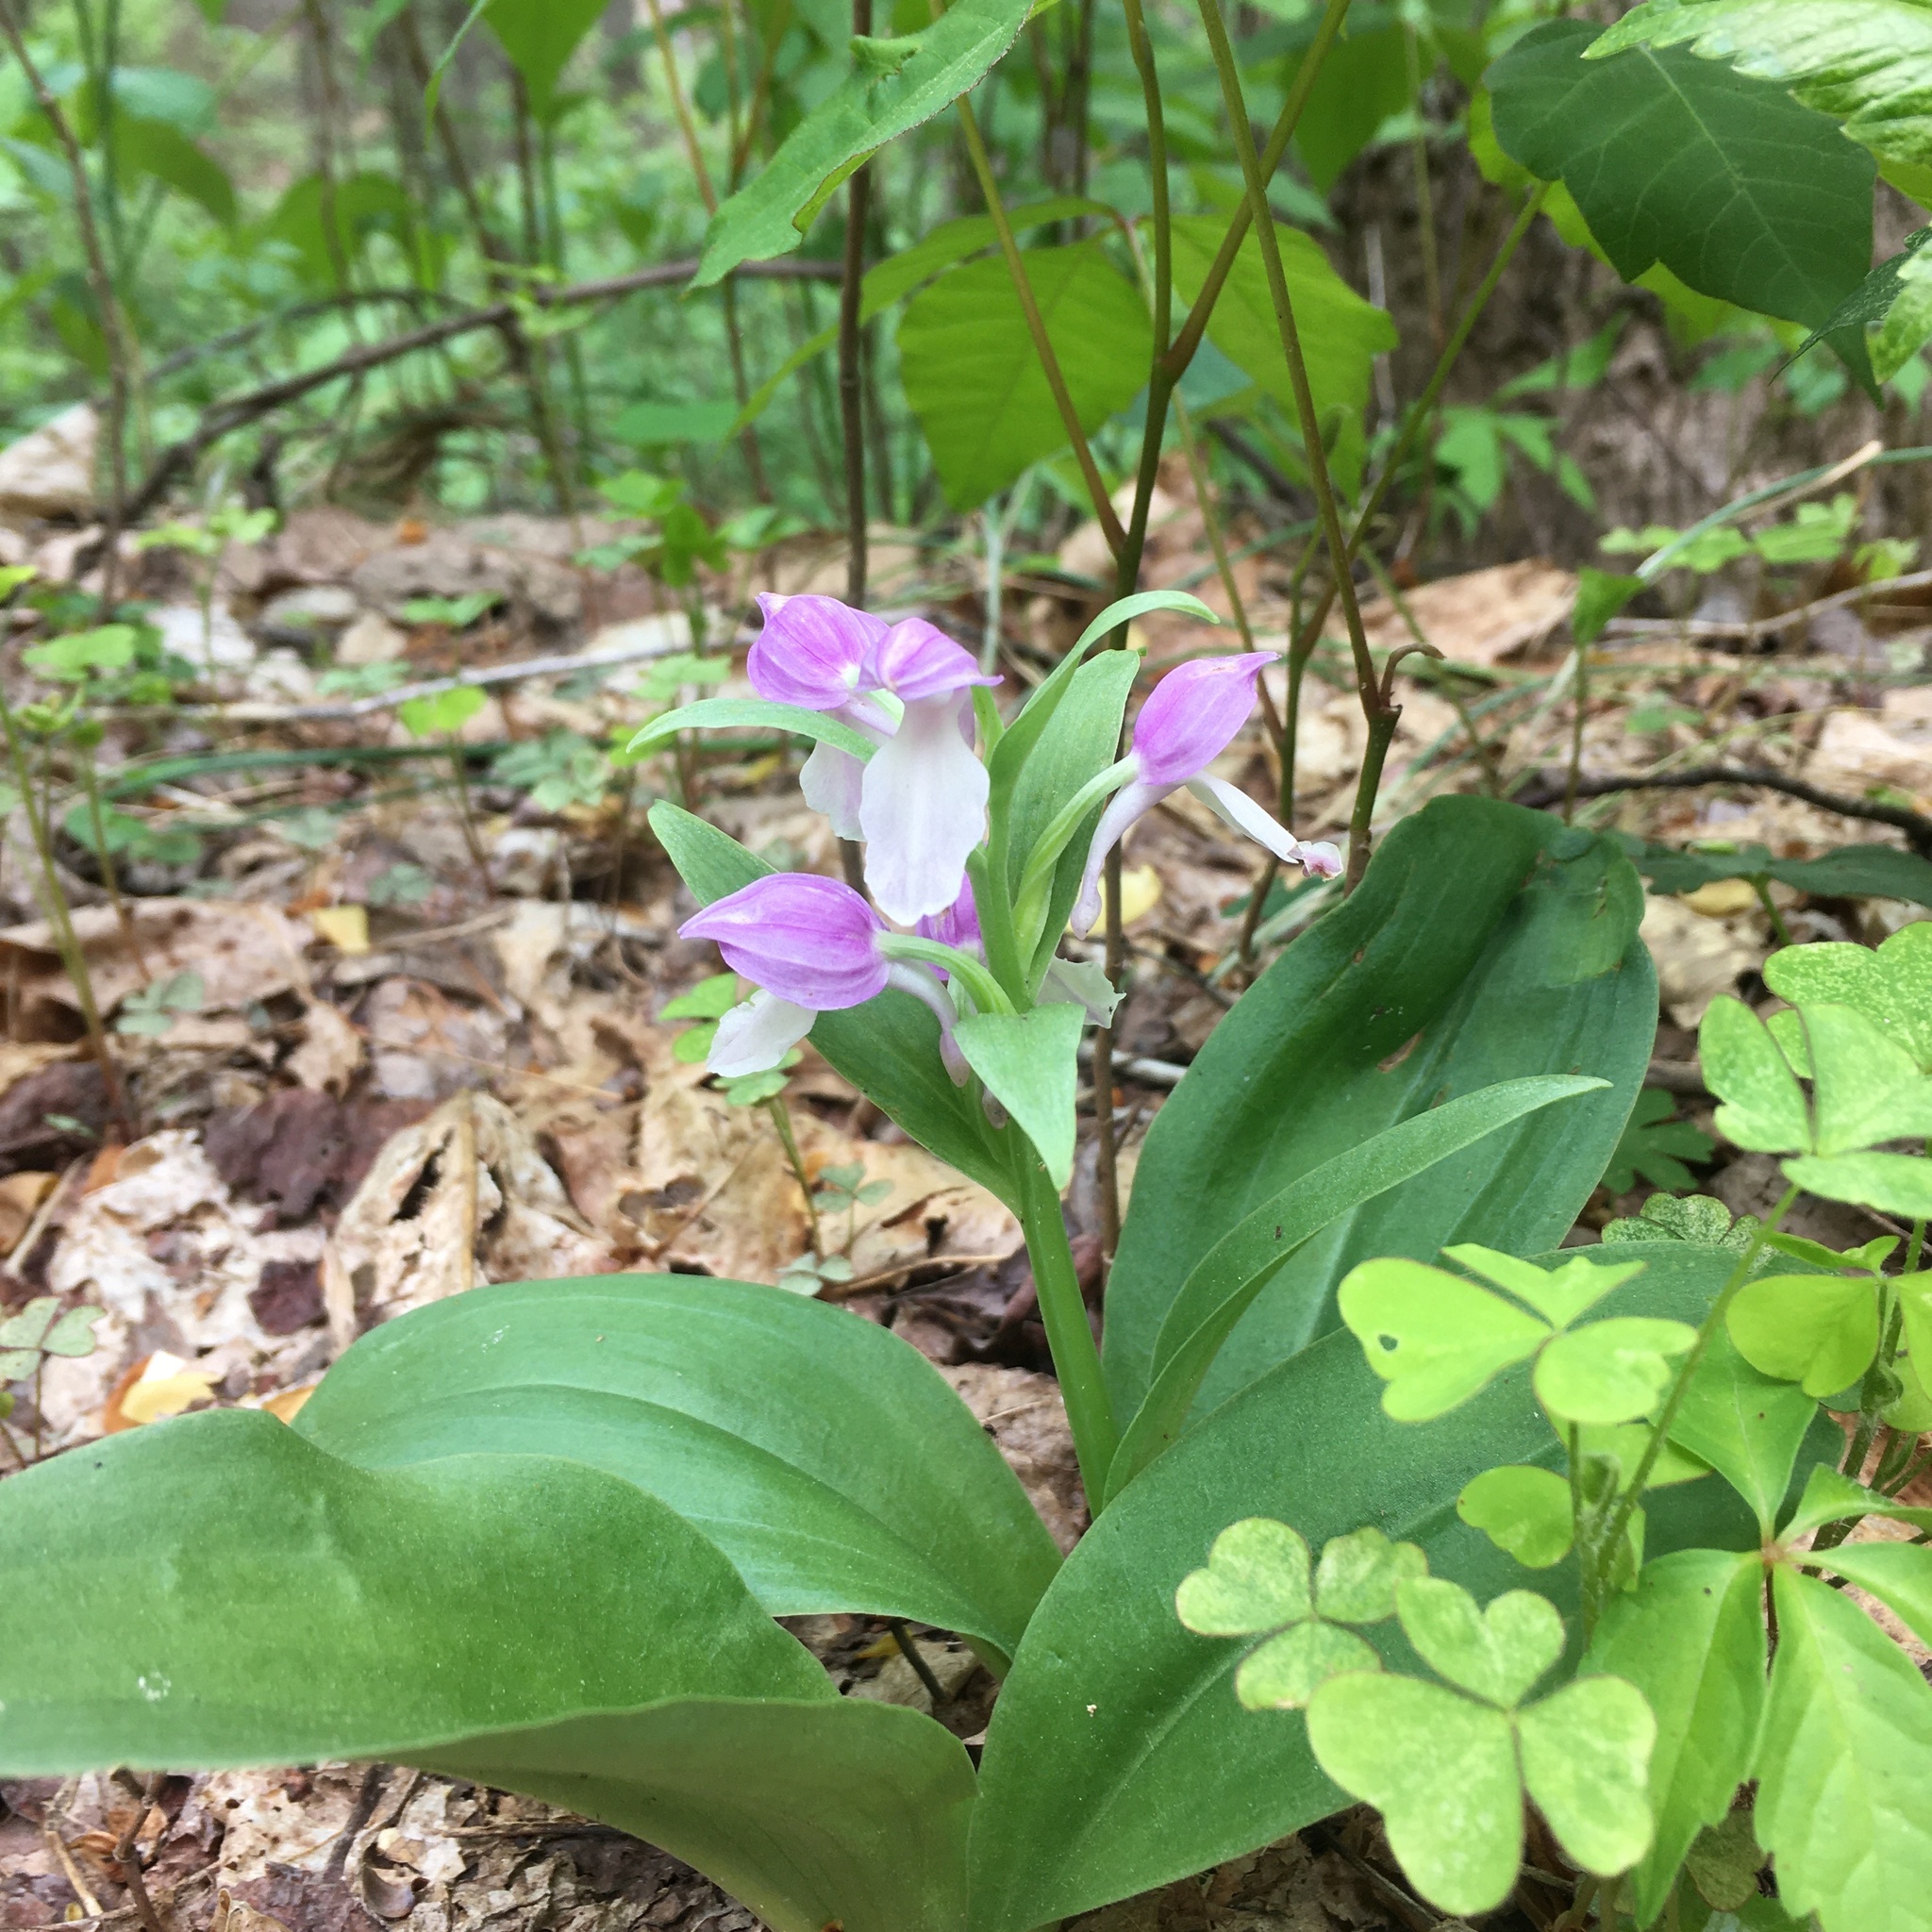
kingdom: Plantae
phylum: Tracheophyta
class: Liliopsida
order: Asparagales
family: Orchidaceae
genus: Galearis
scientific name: Galearis spectabilis
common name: Purple-hooded orchis
